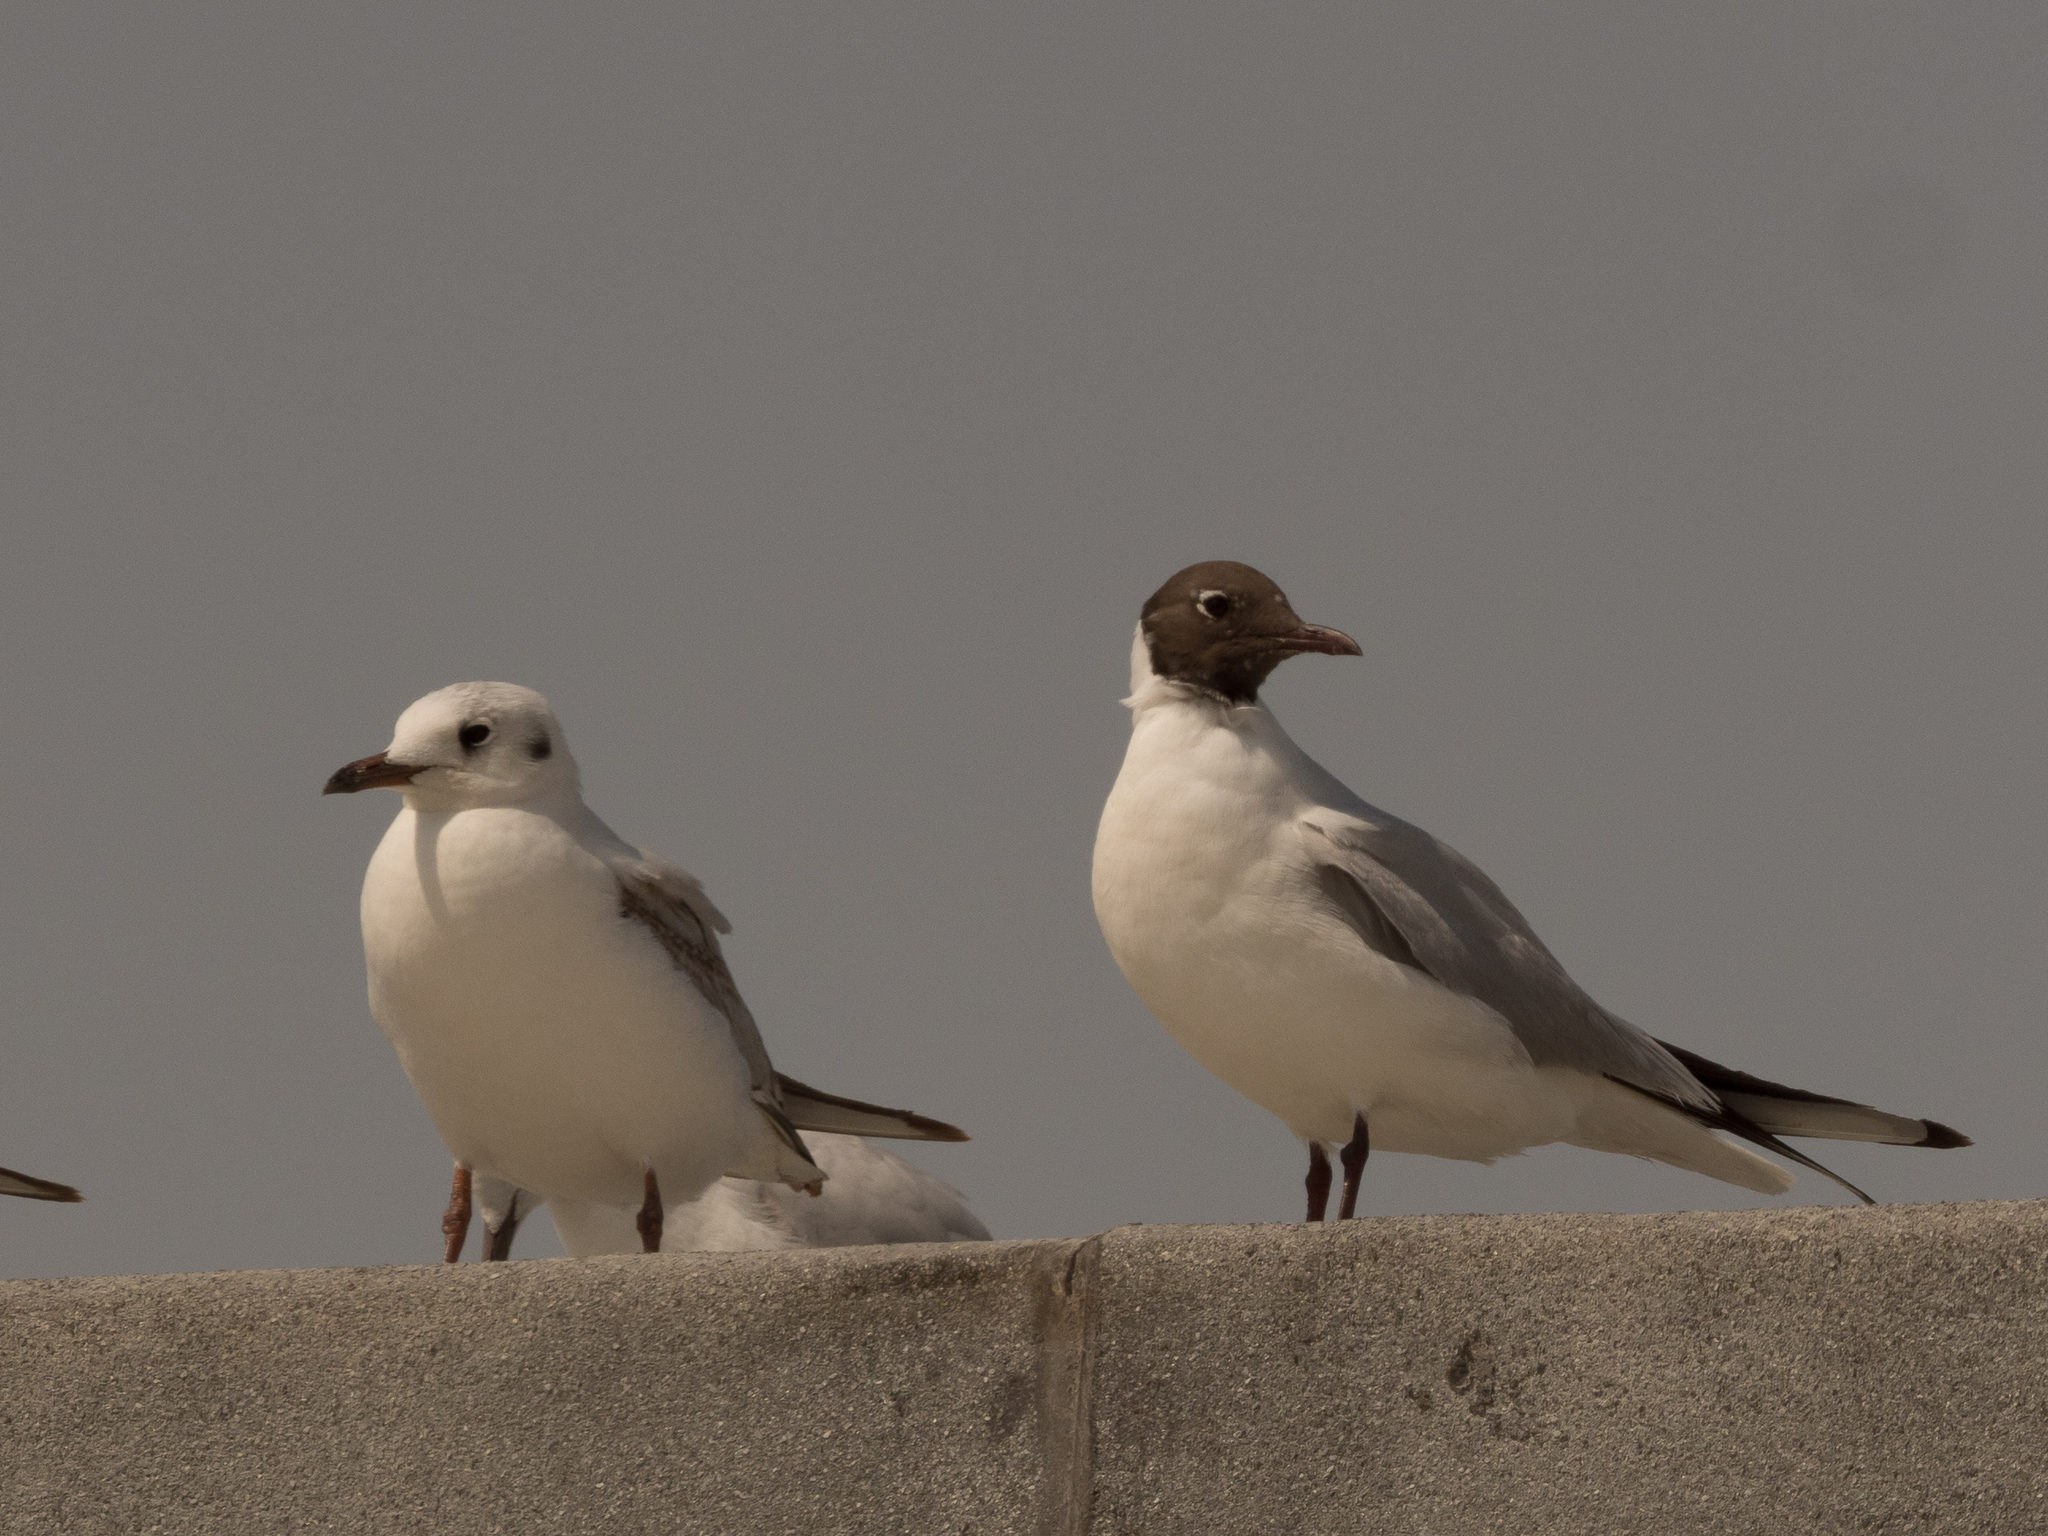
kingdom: Animalia
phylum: Chordata
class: Aves
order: Charadriiformes
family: Laridae
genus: Chroicocephalus
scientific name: Chroicocephalus ridibundus
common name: Black-headed gull
